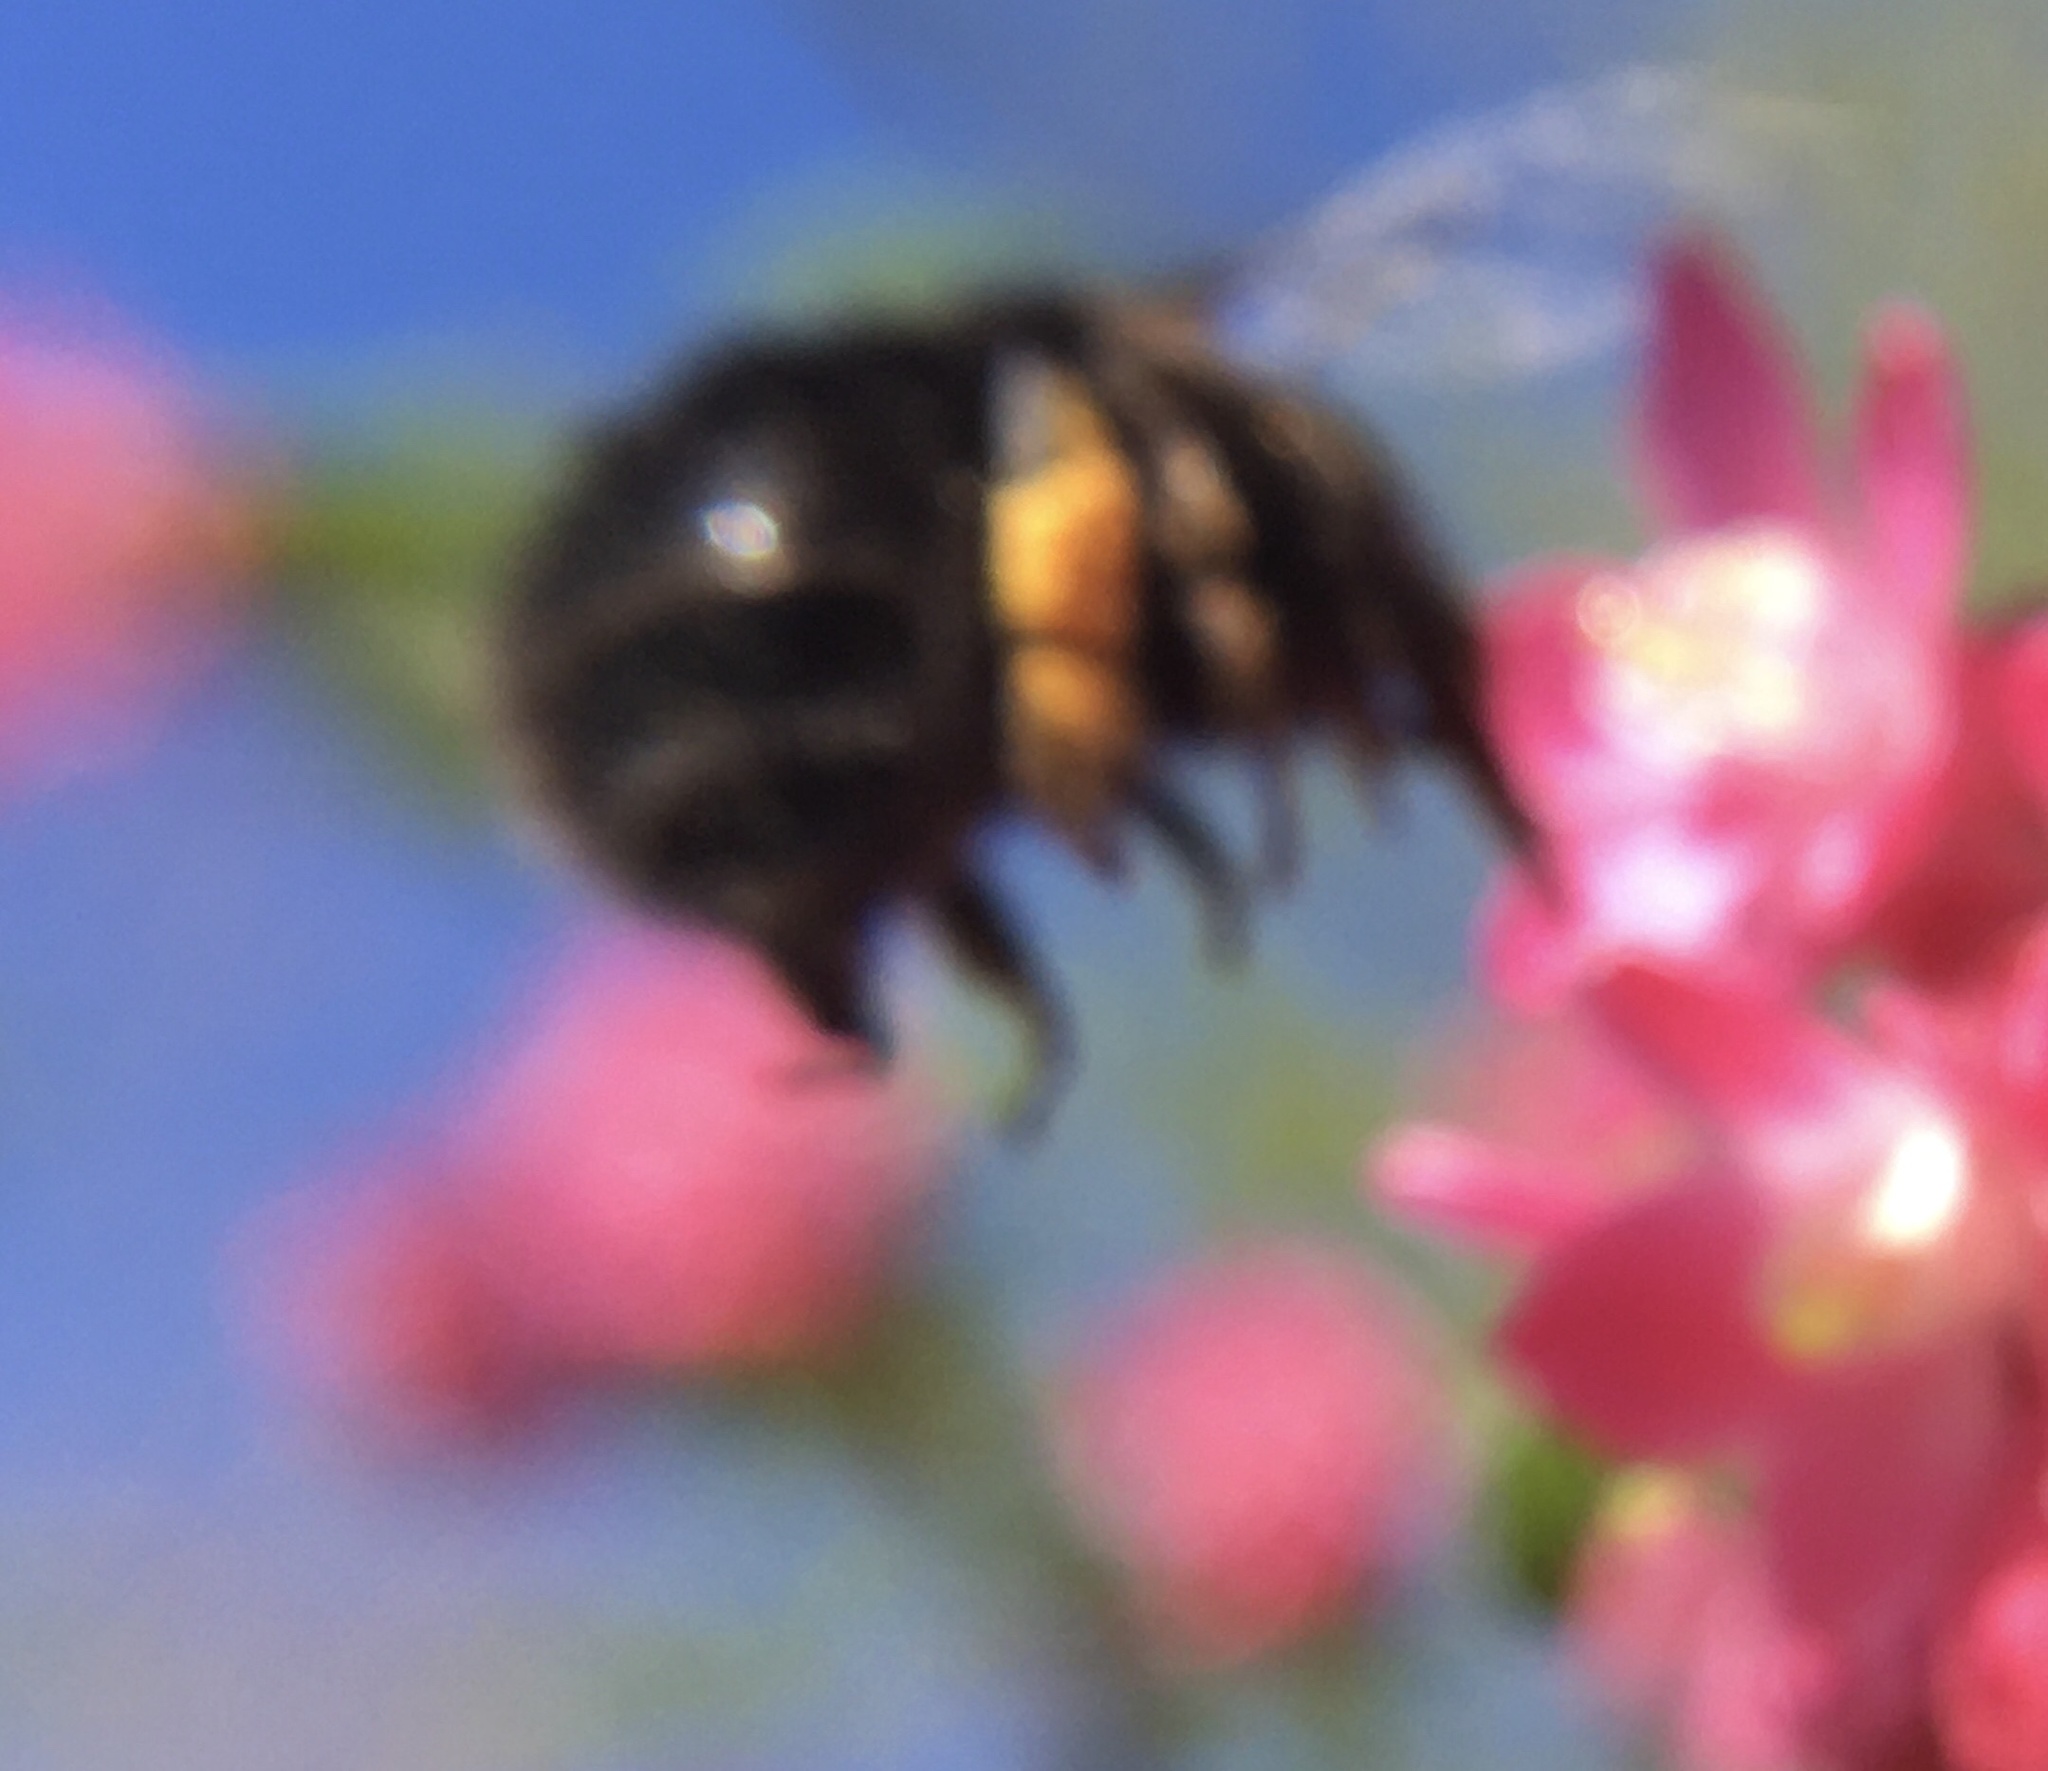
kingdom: Animalia
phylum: Arthropoda
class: Insecta
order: Hymenoptera
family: Apidae
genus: Anthophora
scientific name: Anthophora plumipes
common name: Hairy-footed flower bee
